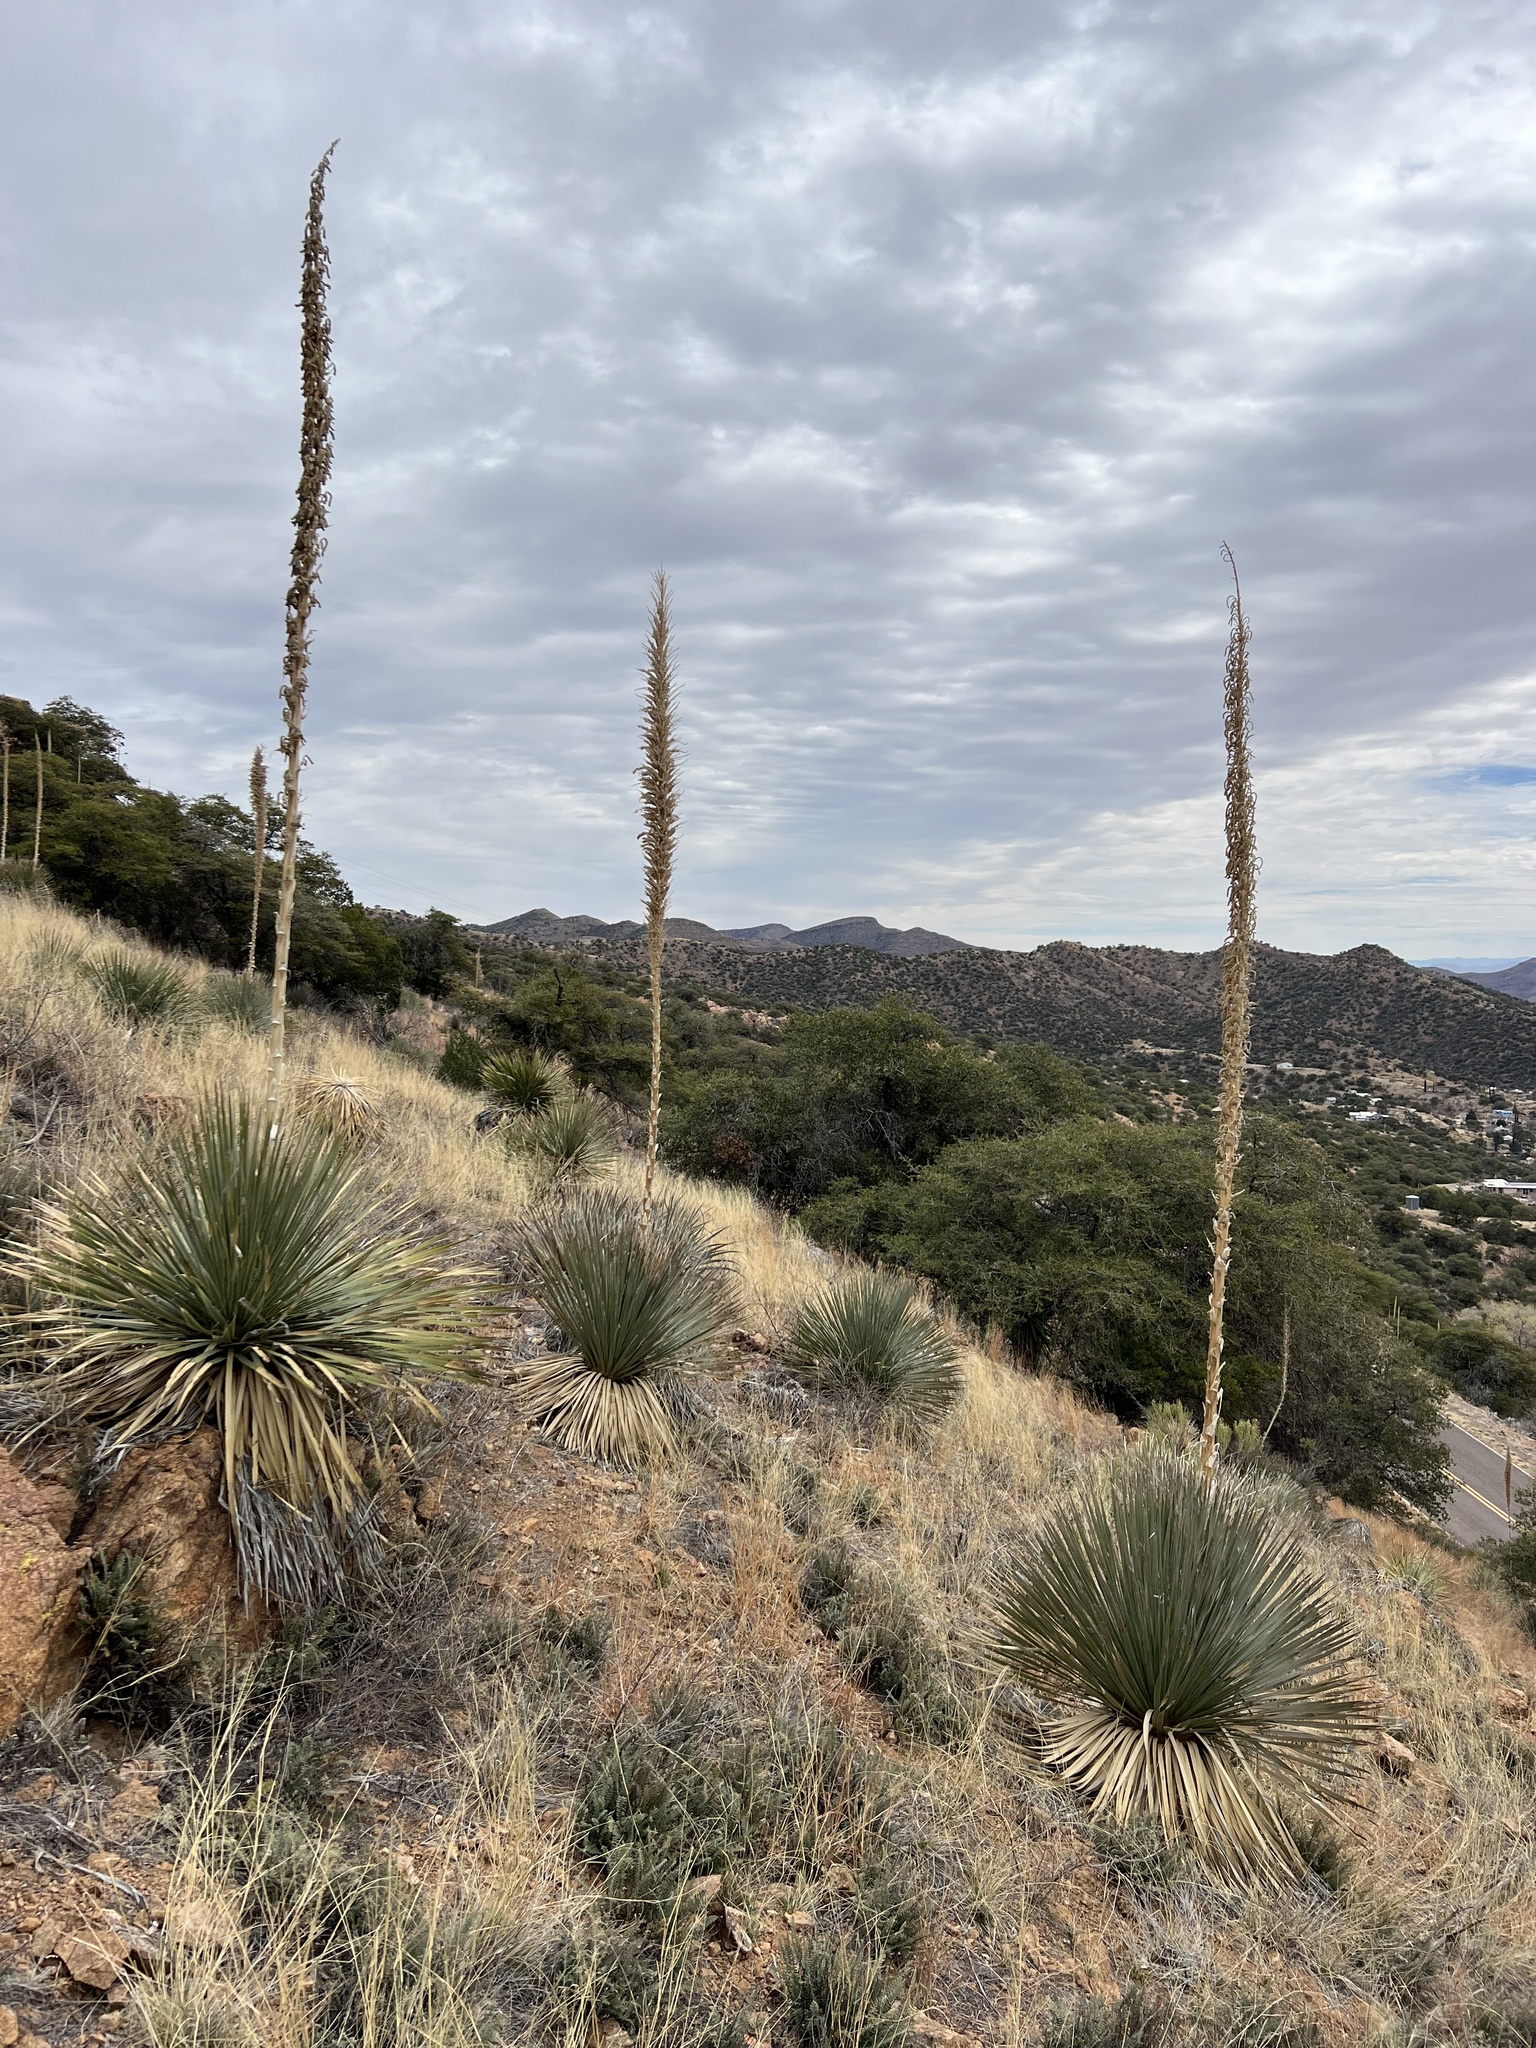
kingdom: Plantae
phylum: Tracheophyta
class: Liliopsida
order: Asparagales
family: Asparagaceae
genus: Dasylirion
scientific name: Dasylirion wheeleri
